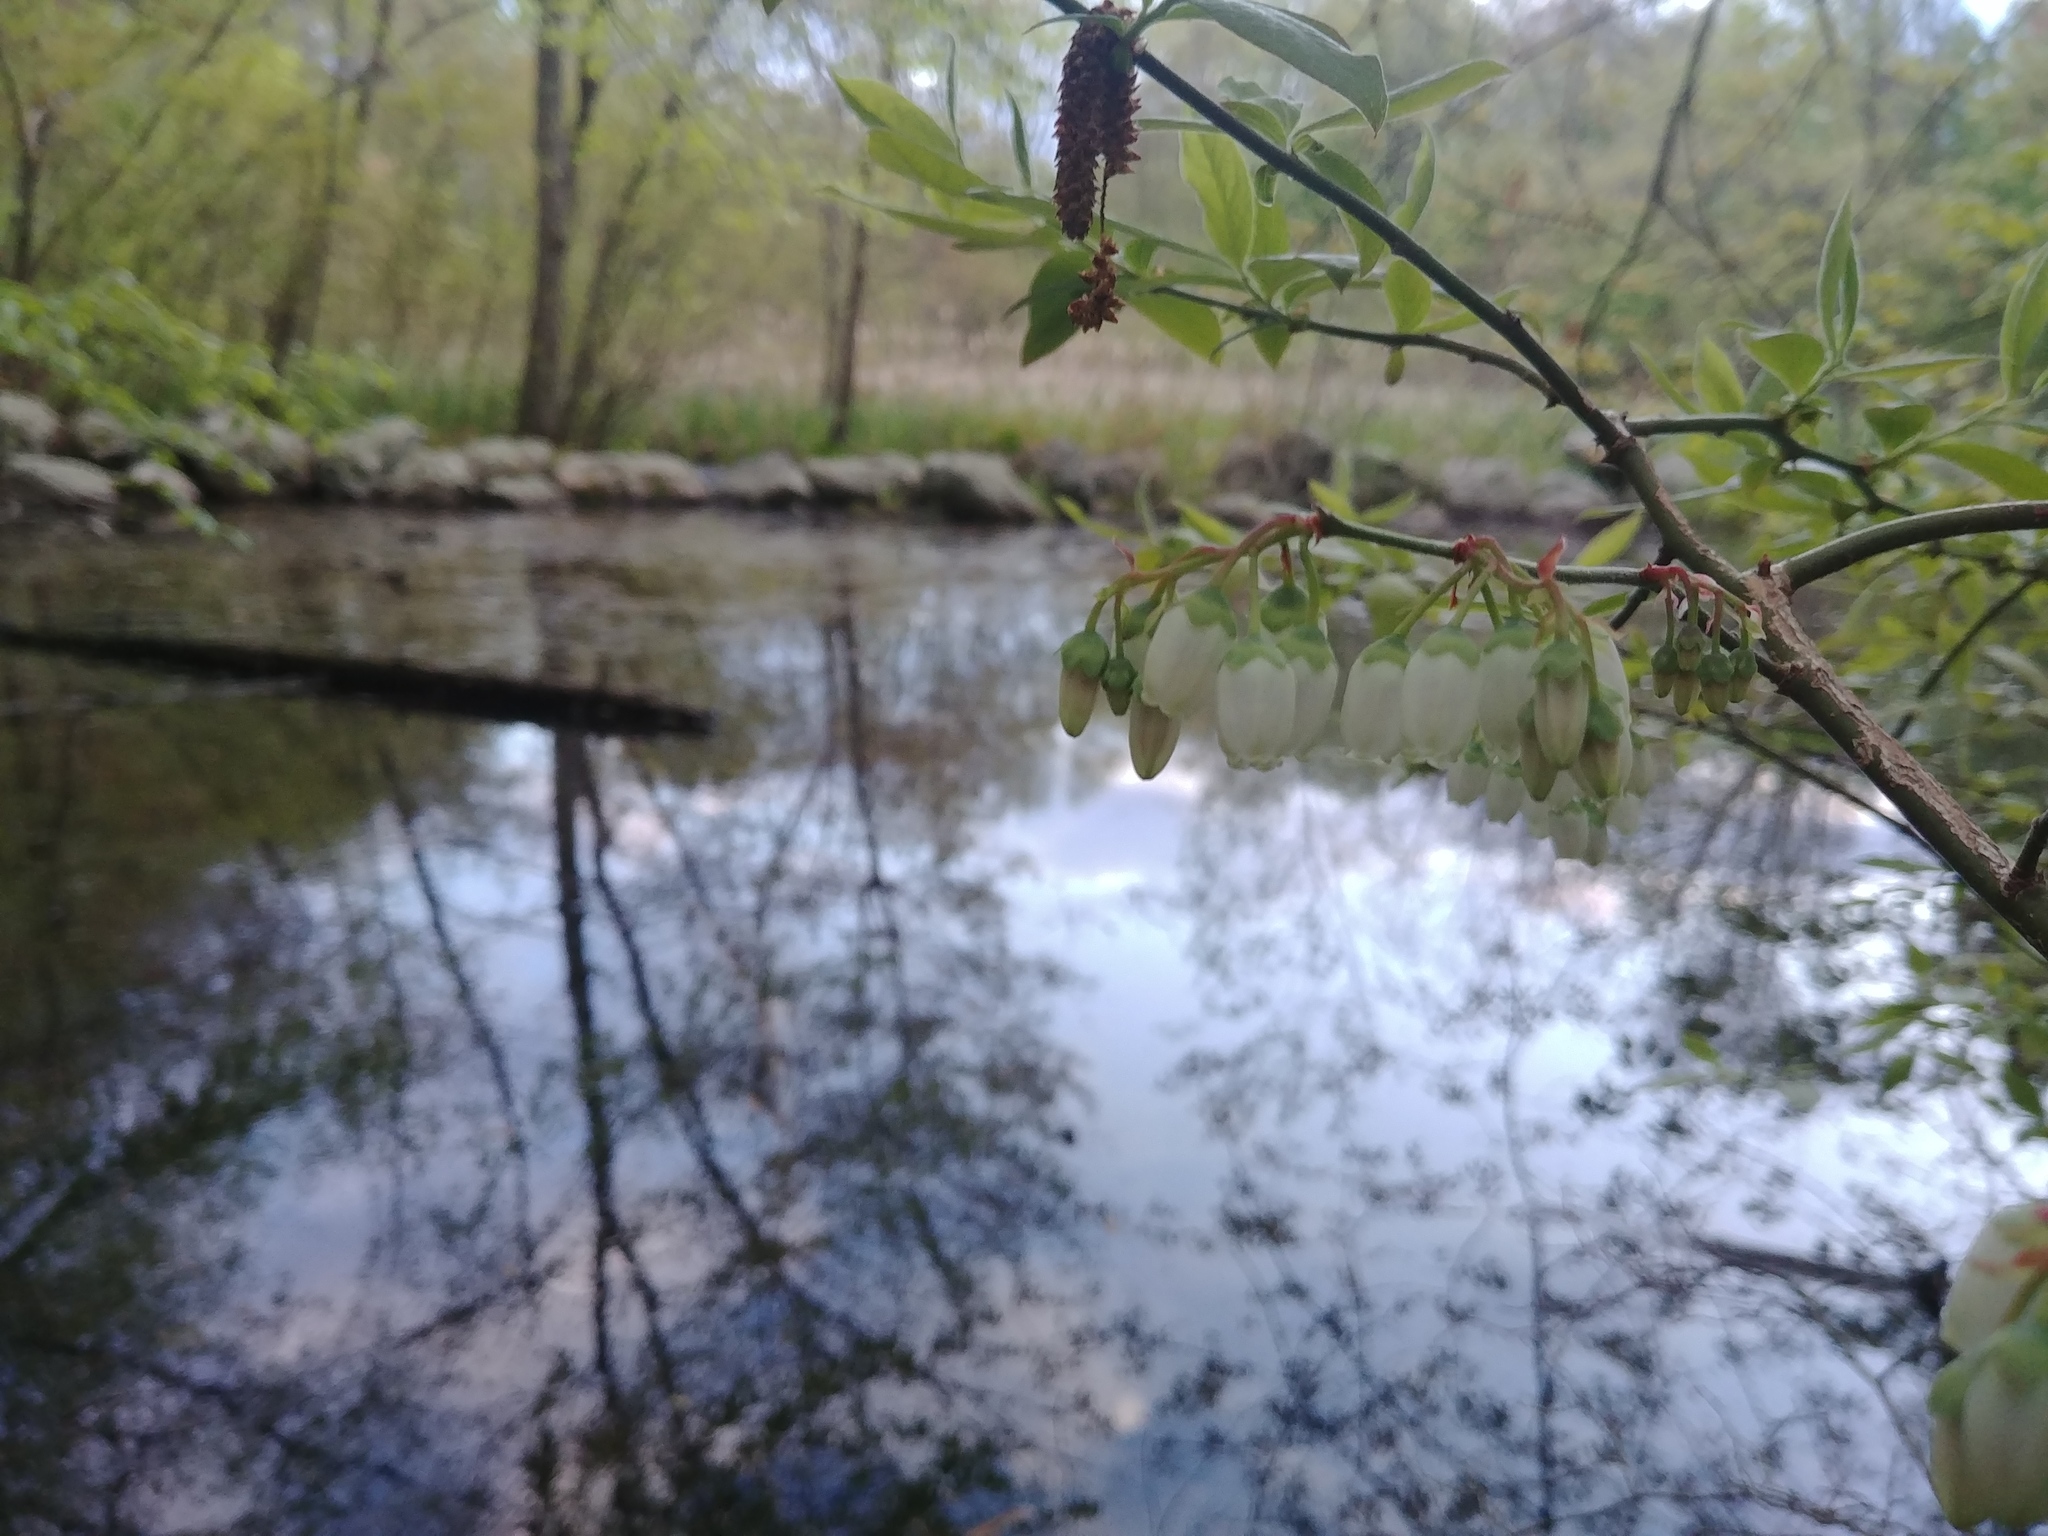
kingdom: Plantae
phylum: Tracheophyta
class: Magnoliopsida
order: Ericales
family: Ericaceae
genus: Vaccinium
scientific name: Vaccinium corymbosum
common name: Blueberry
